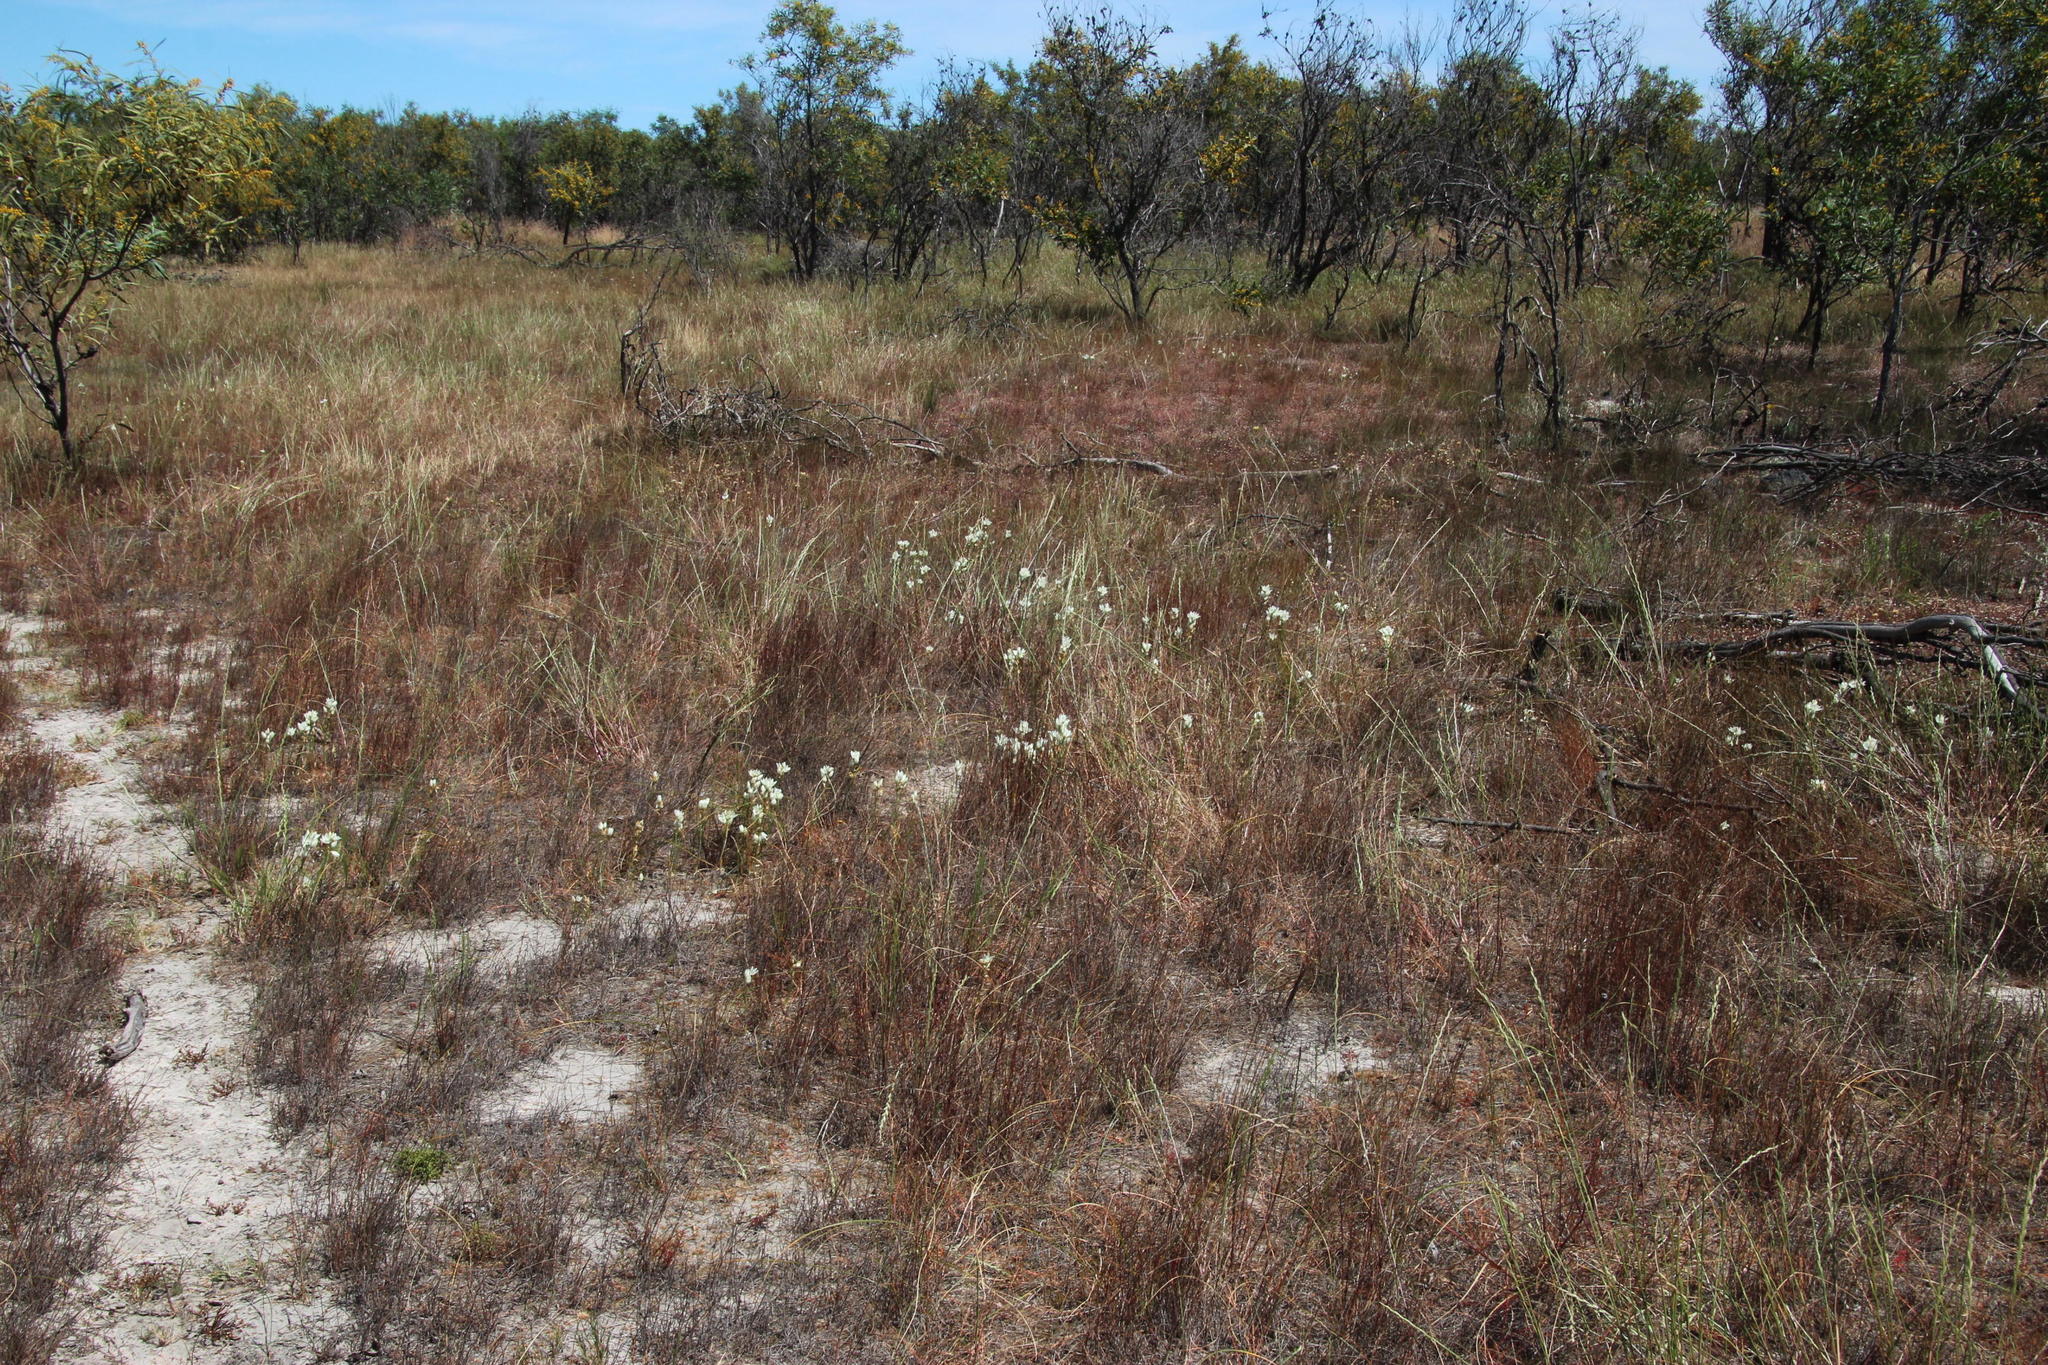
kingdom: Plantae
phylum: Tracheophyta
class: Liliopsida
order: Asparagales
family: Asparagaceae
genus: Ornithogalum
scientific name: Ornithogalum thyrsoides
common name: Chincherinchee
